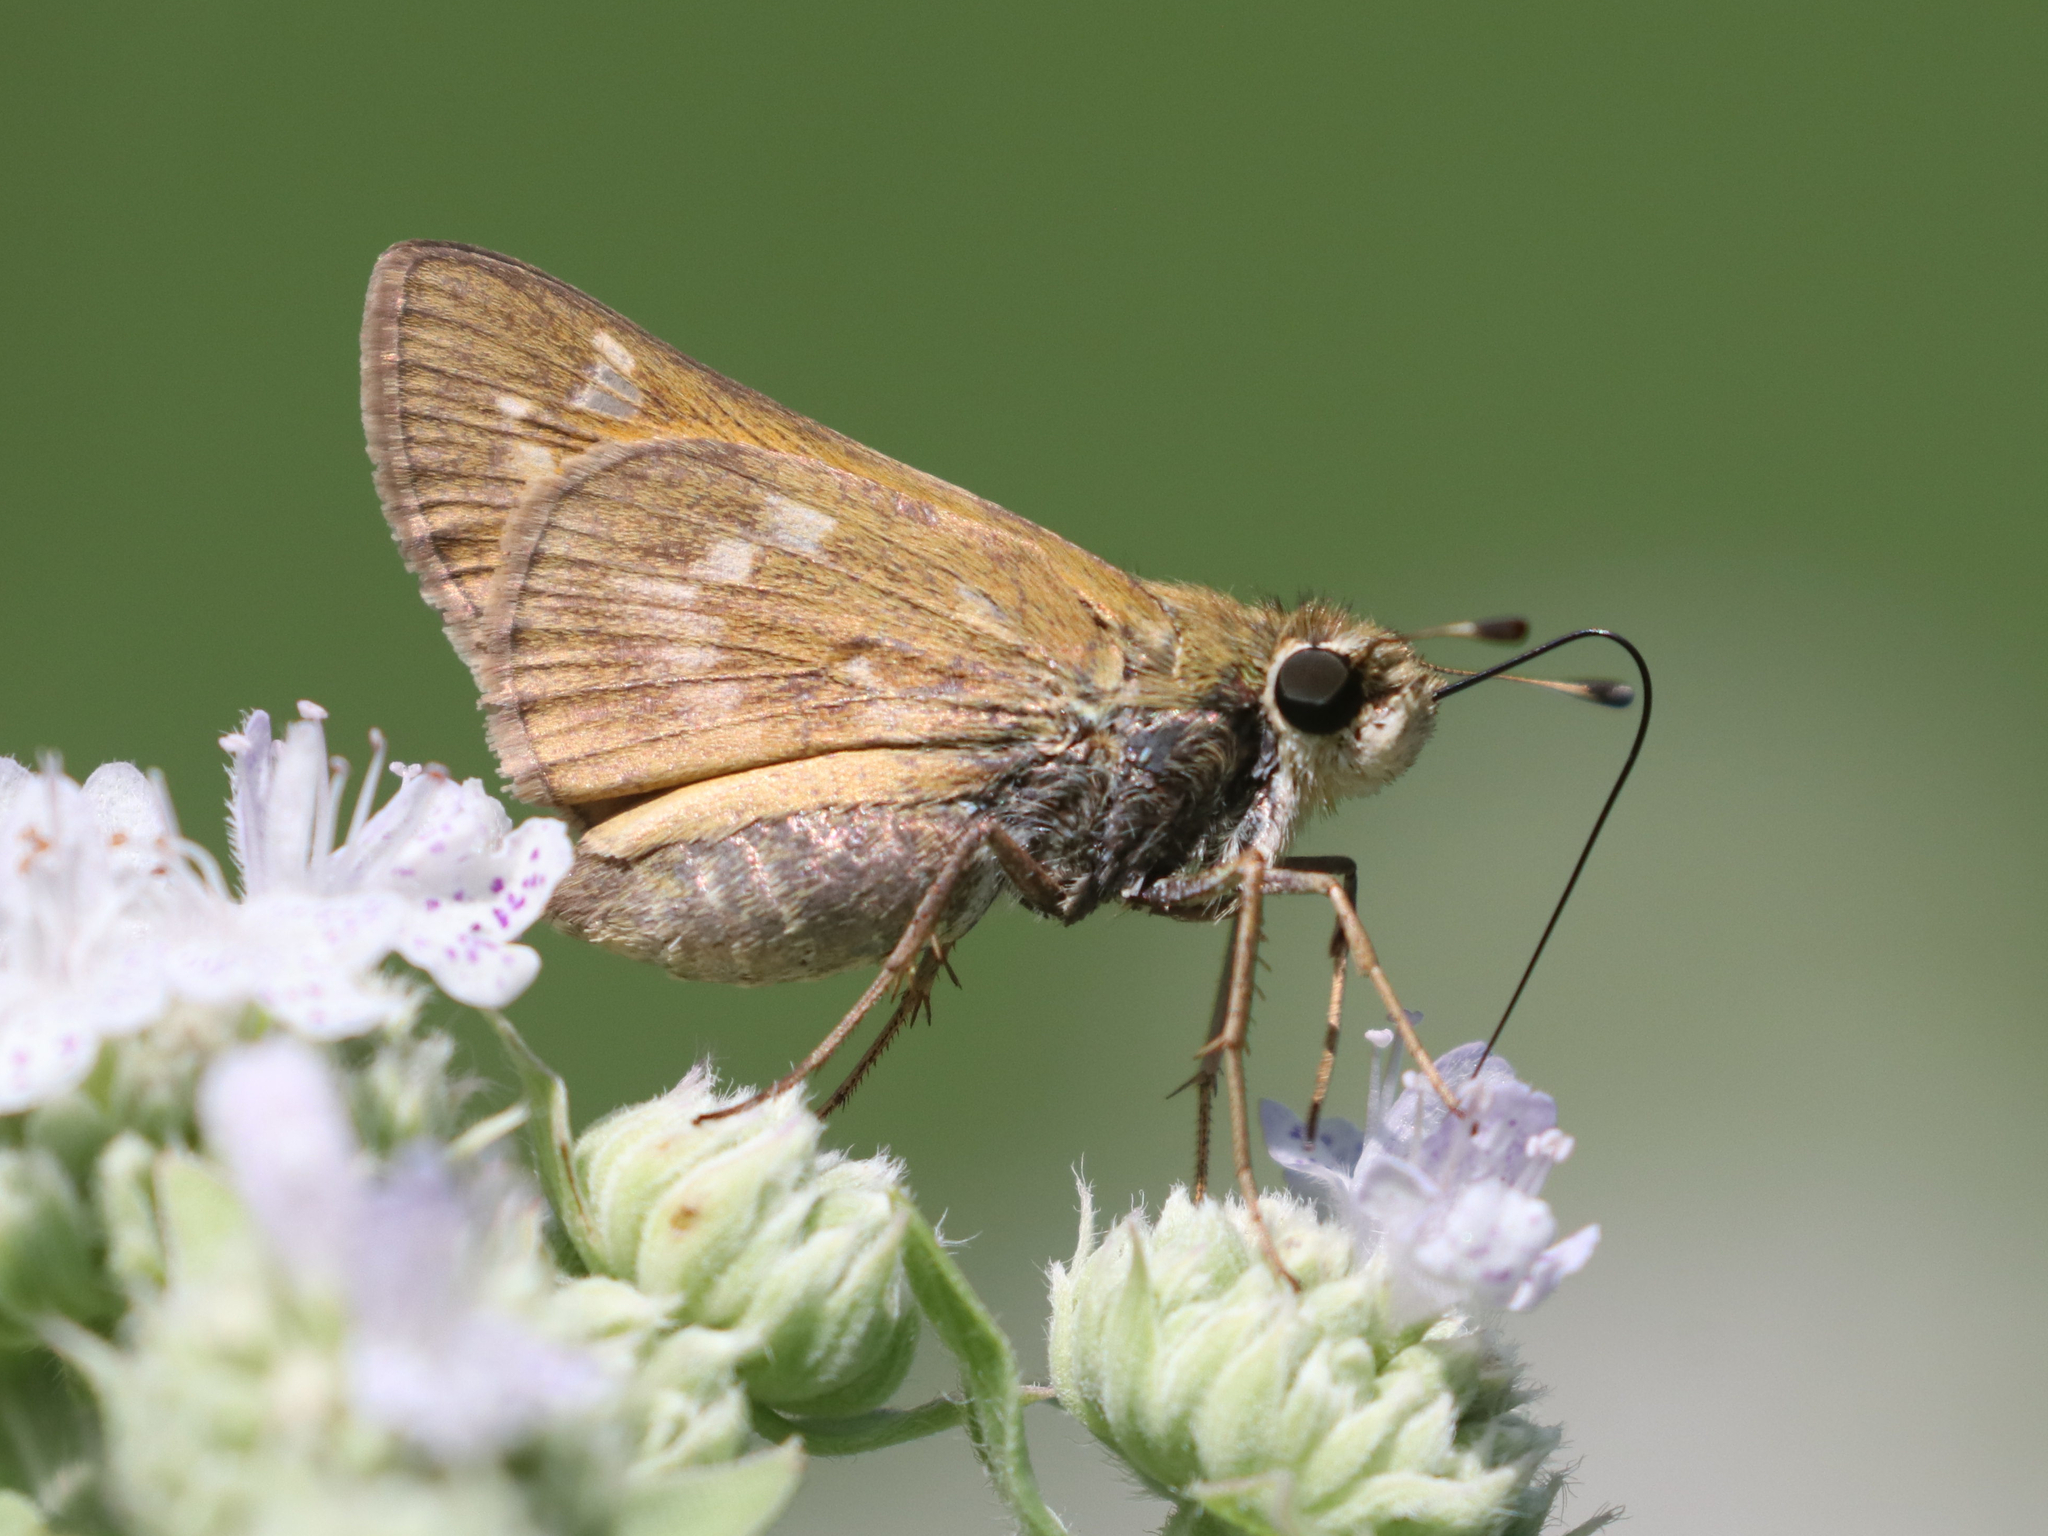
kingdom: Animalia
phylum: Arthropoda
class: Insecta
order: Lepidoptera
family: Hesperiidae
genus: Atalopedes
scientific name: Atalopedes
